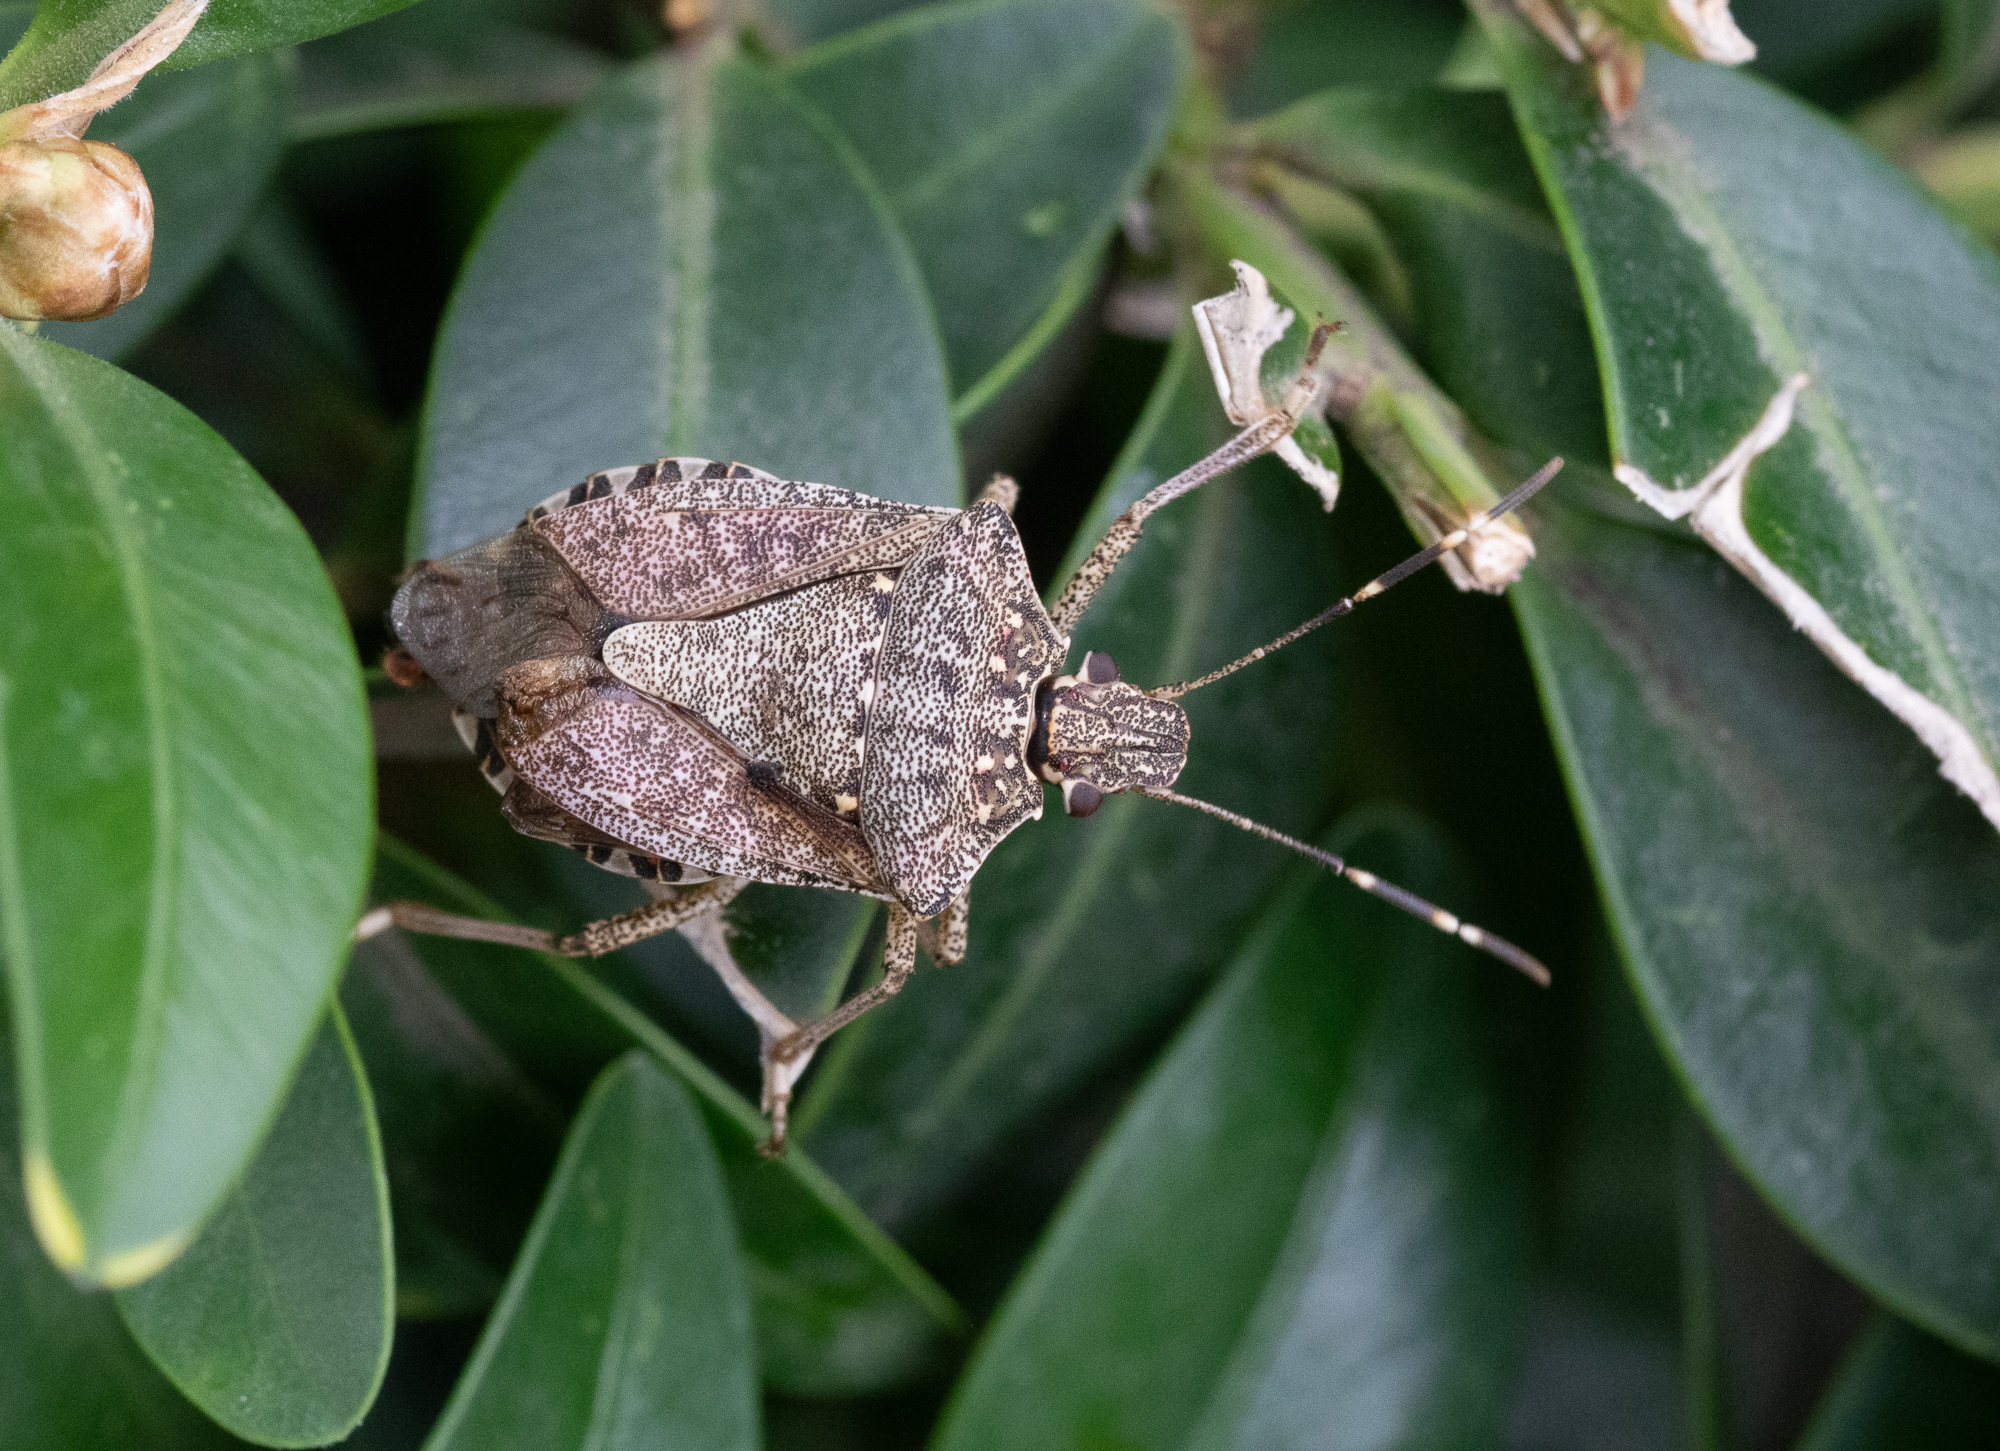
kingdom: Animalia
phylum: Arthropoda
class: Insecta
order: Hemiptera
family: Pentatomidae
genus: Halyomorpha
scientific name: Halyomorpha halys
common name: Brown marmorated stink bug
